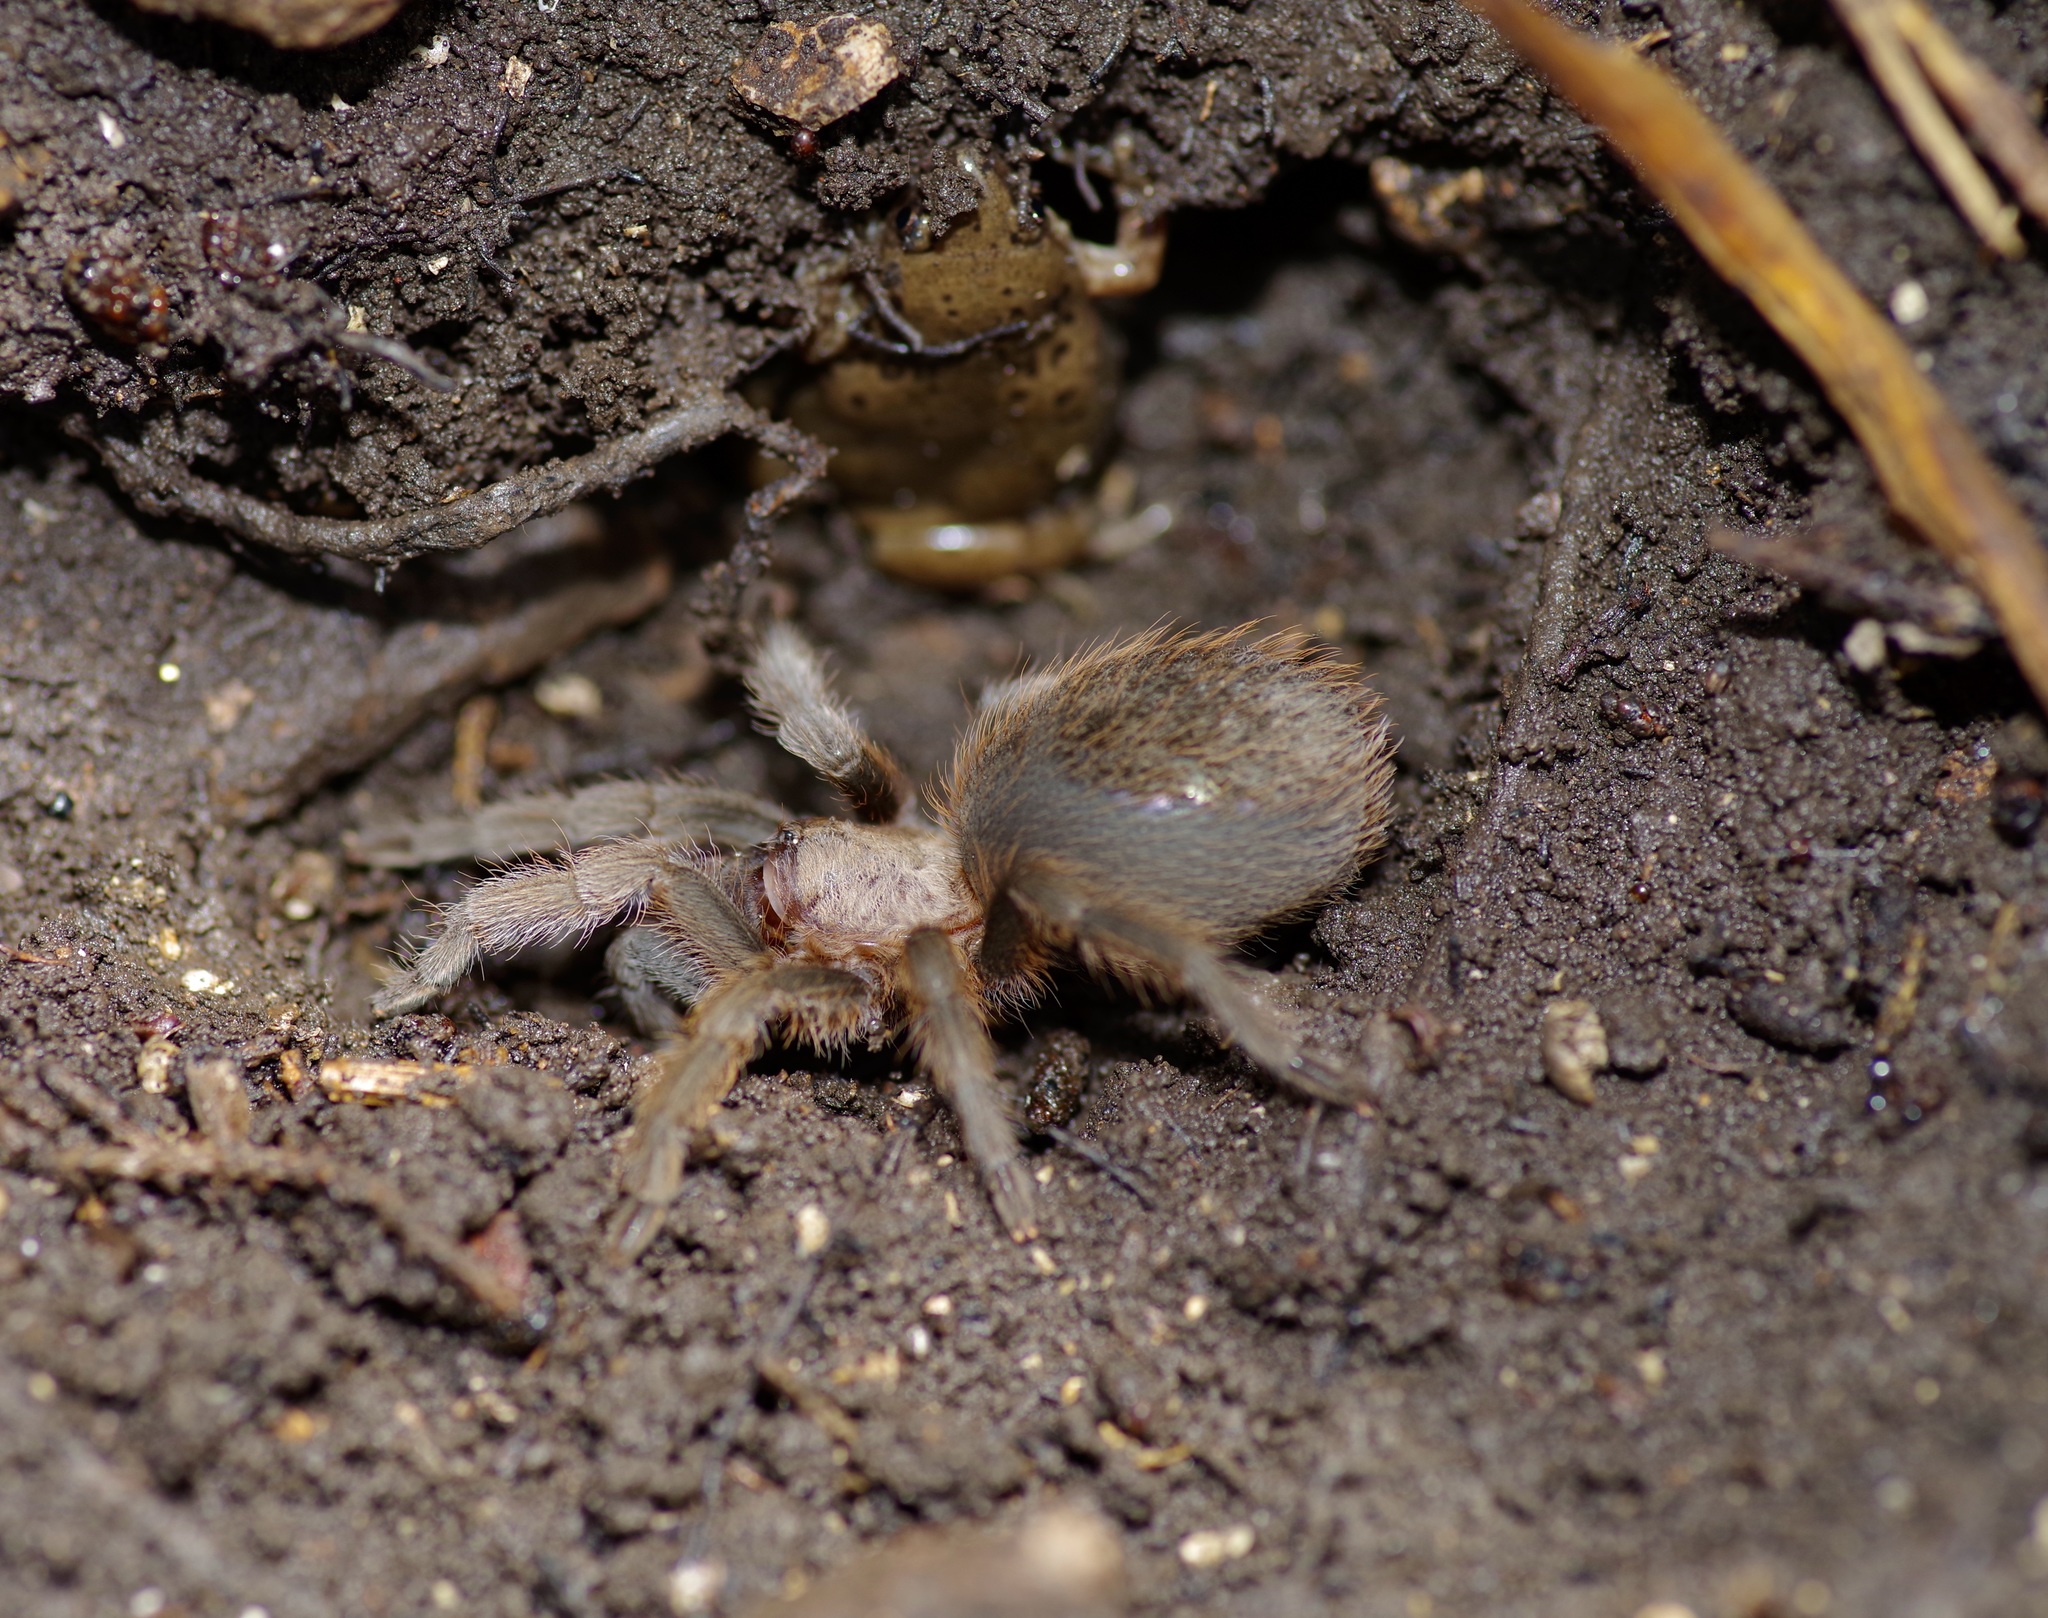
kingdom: Animalia
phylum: Arthropoda
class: Arachnida
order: Araneae
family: Theraphosidae
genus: Aphonopelma
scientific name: Aphonopelma hentzi
